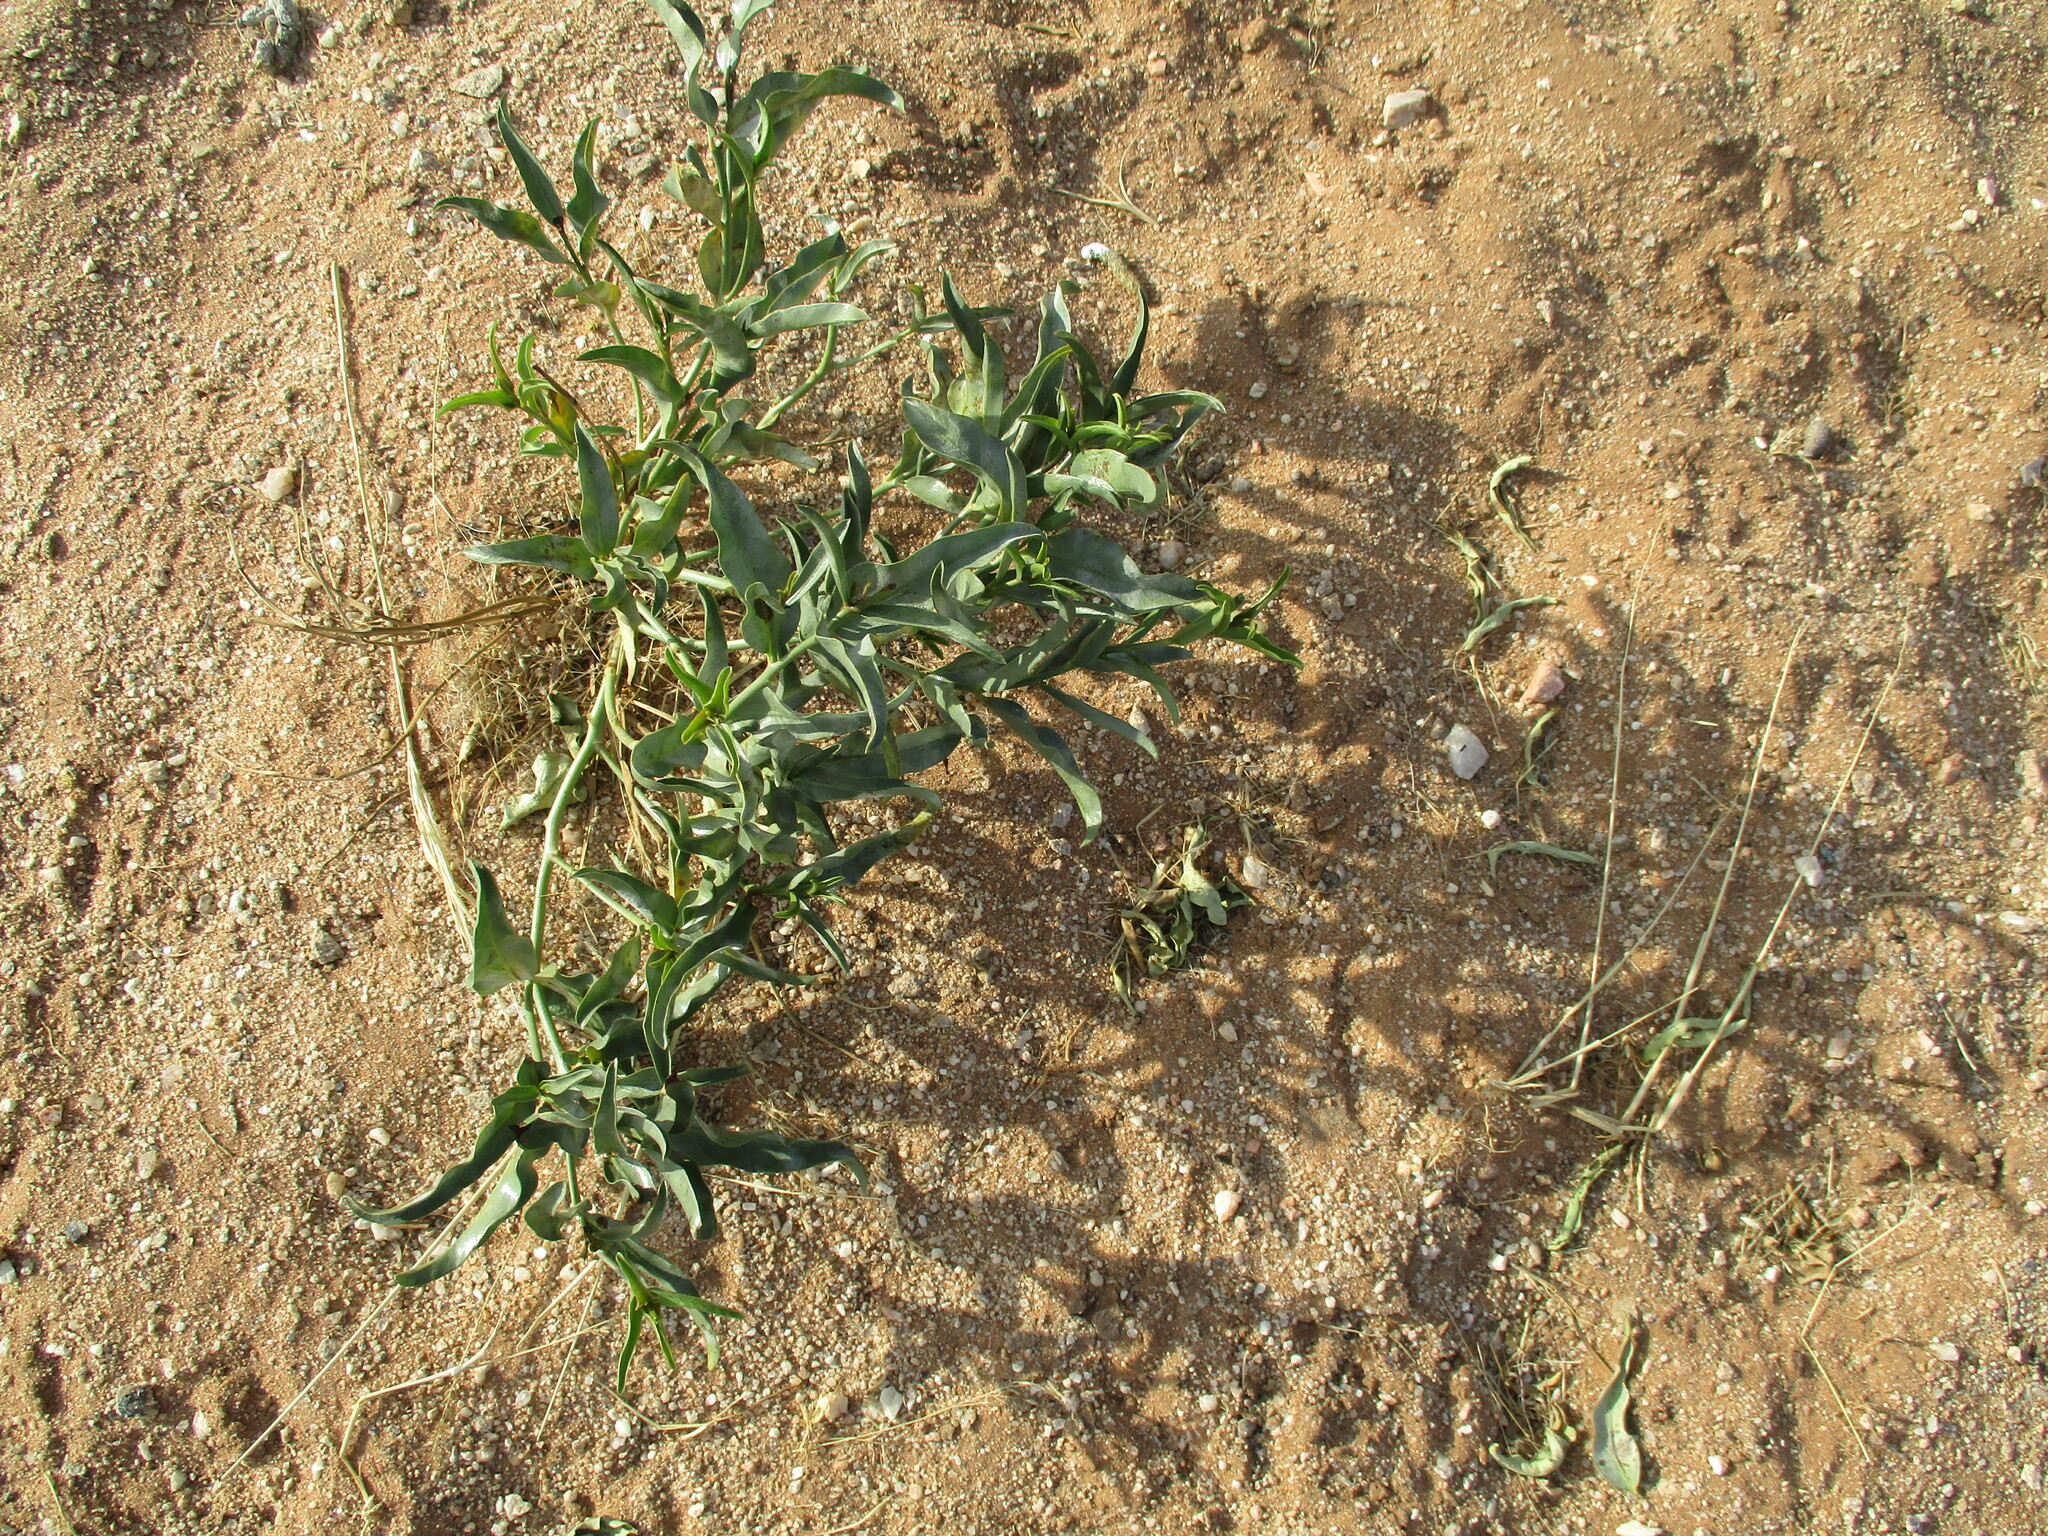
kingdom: Plantae
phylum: Tracheophyta
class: Magnoliopsida
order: Gentianales
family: Apocynaceae
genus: Raphionacme
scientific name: Raphionacme haeneliae
